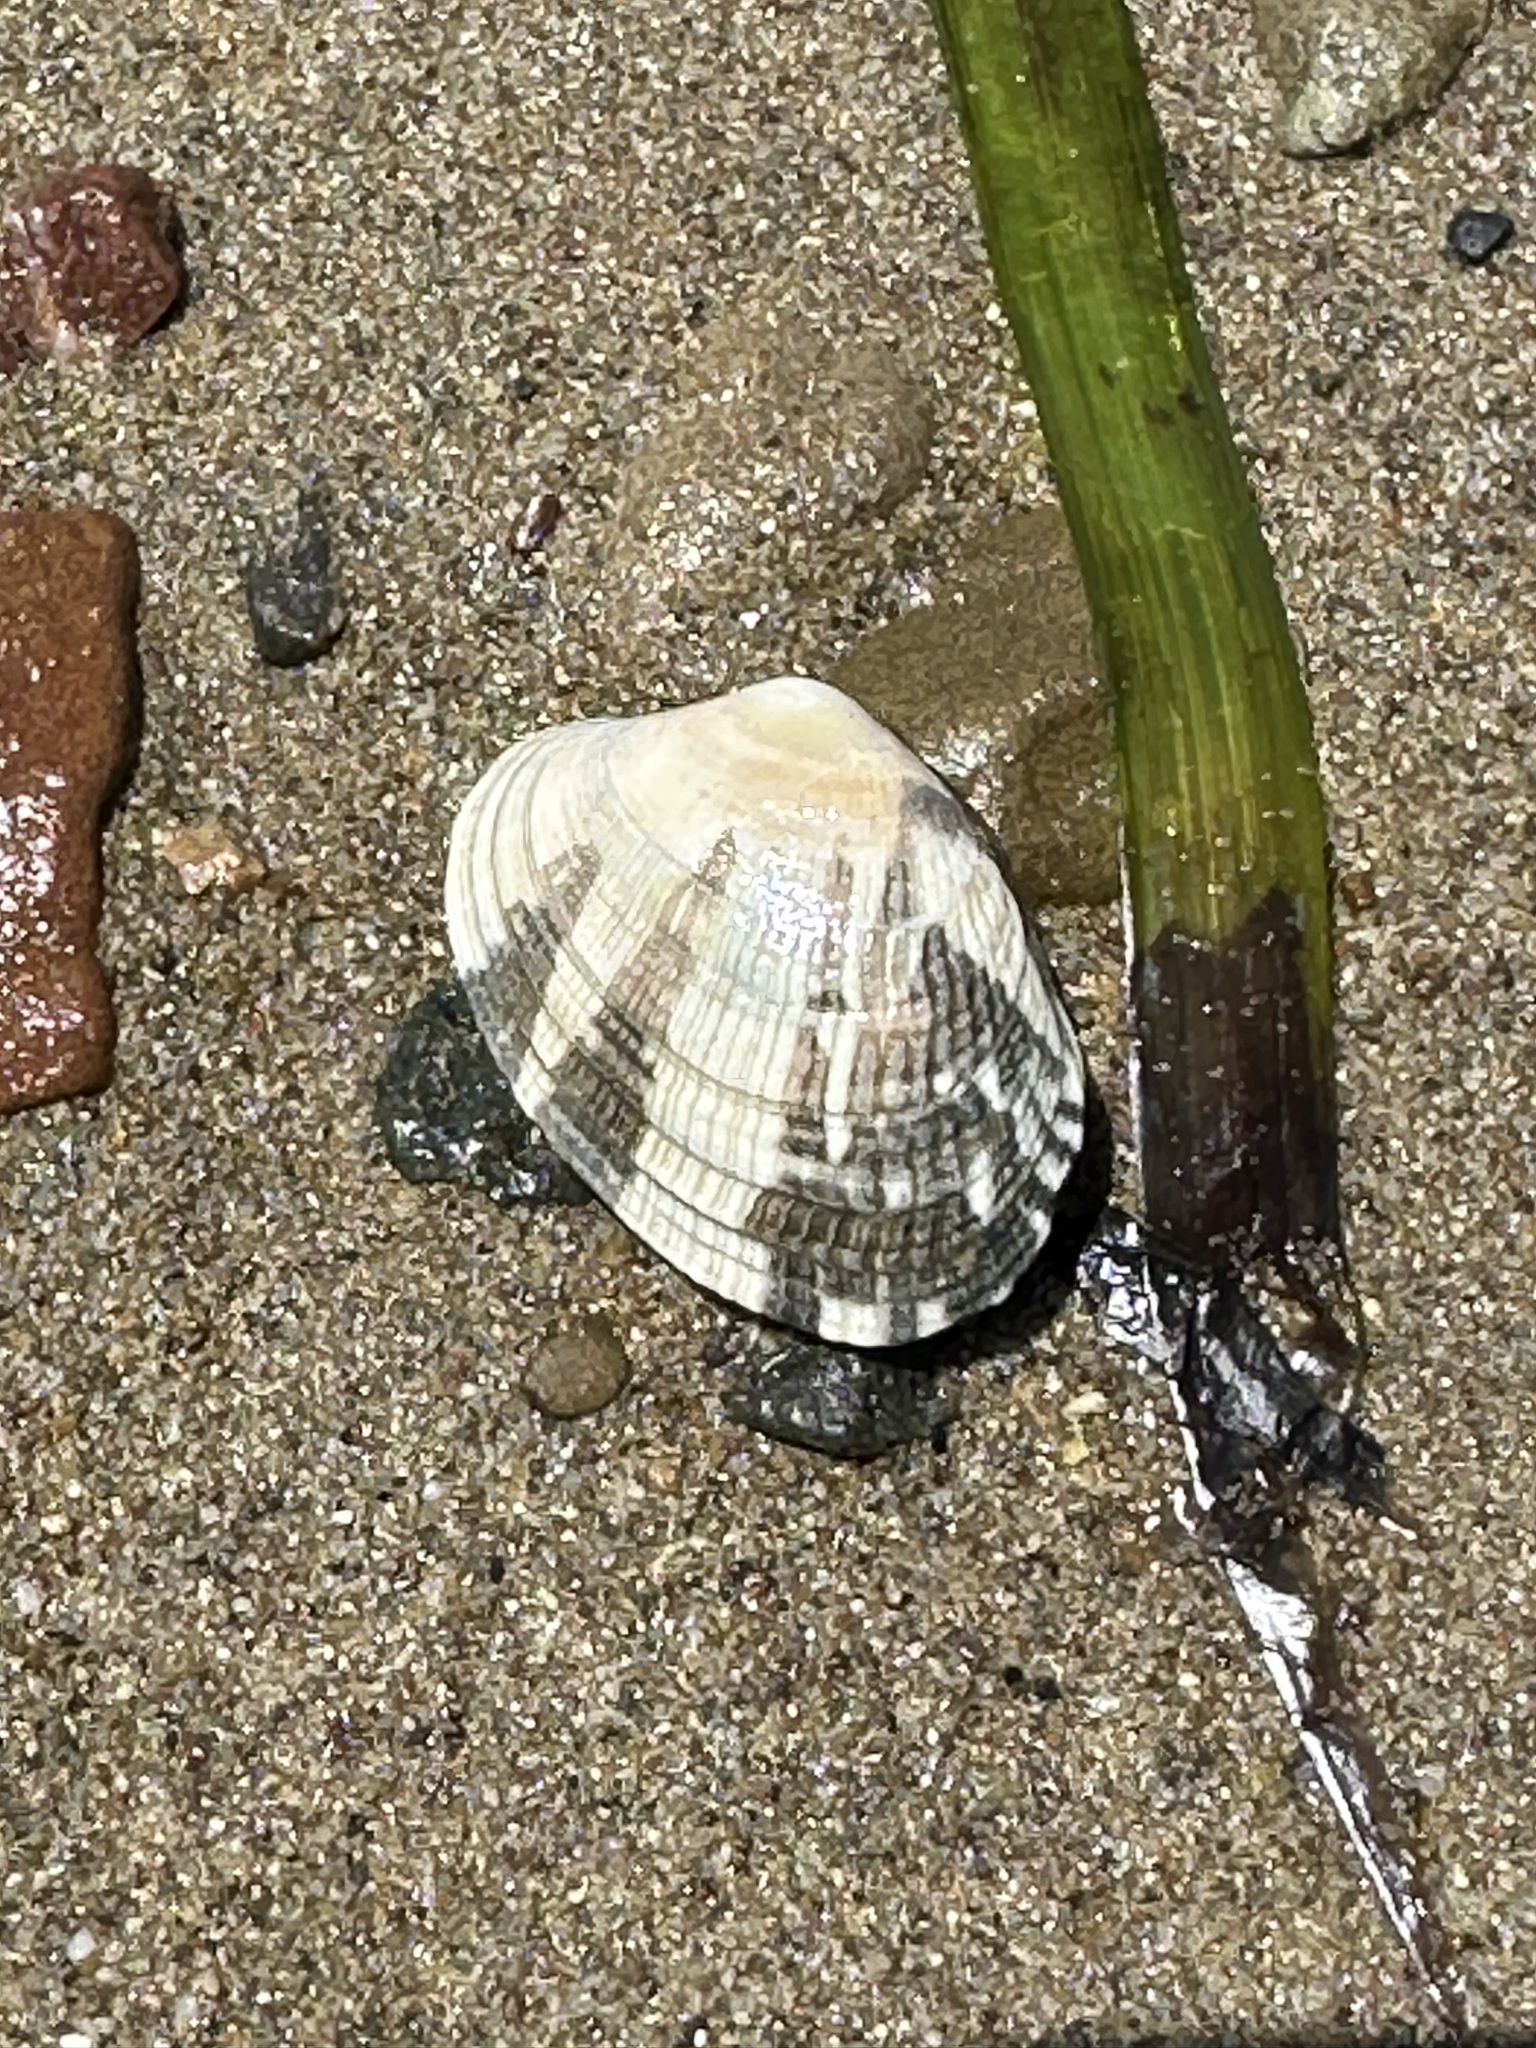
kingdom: Animalia
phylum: Mollusca
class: Bivalvia
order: Venerida
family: Veneridae
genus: Ruditapes
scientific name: Ruditapes philippinarum
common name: Manila clam
